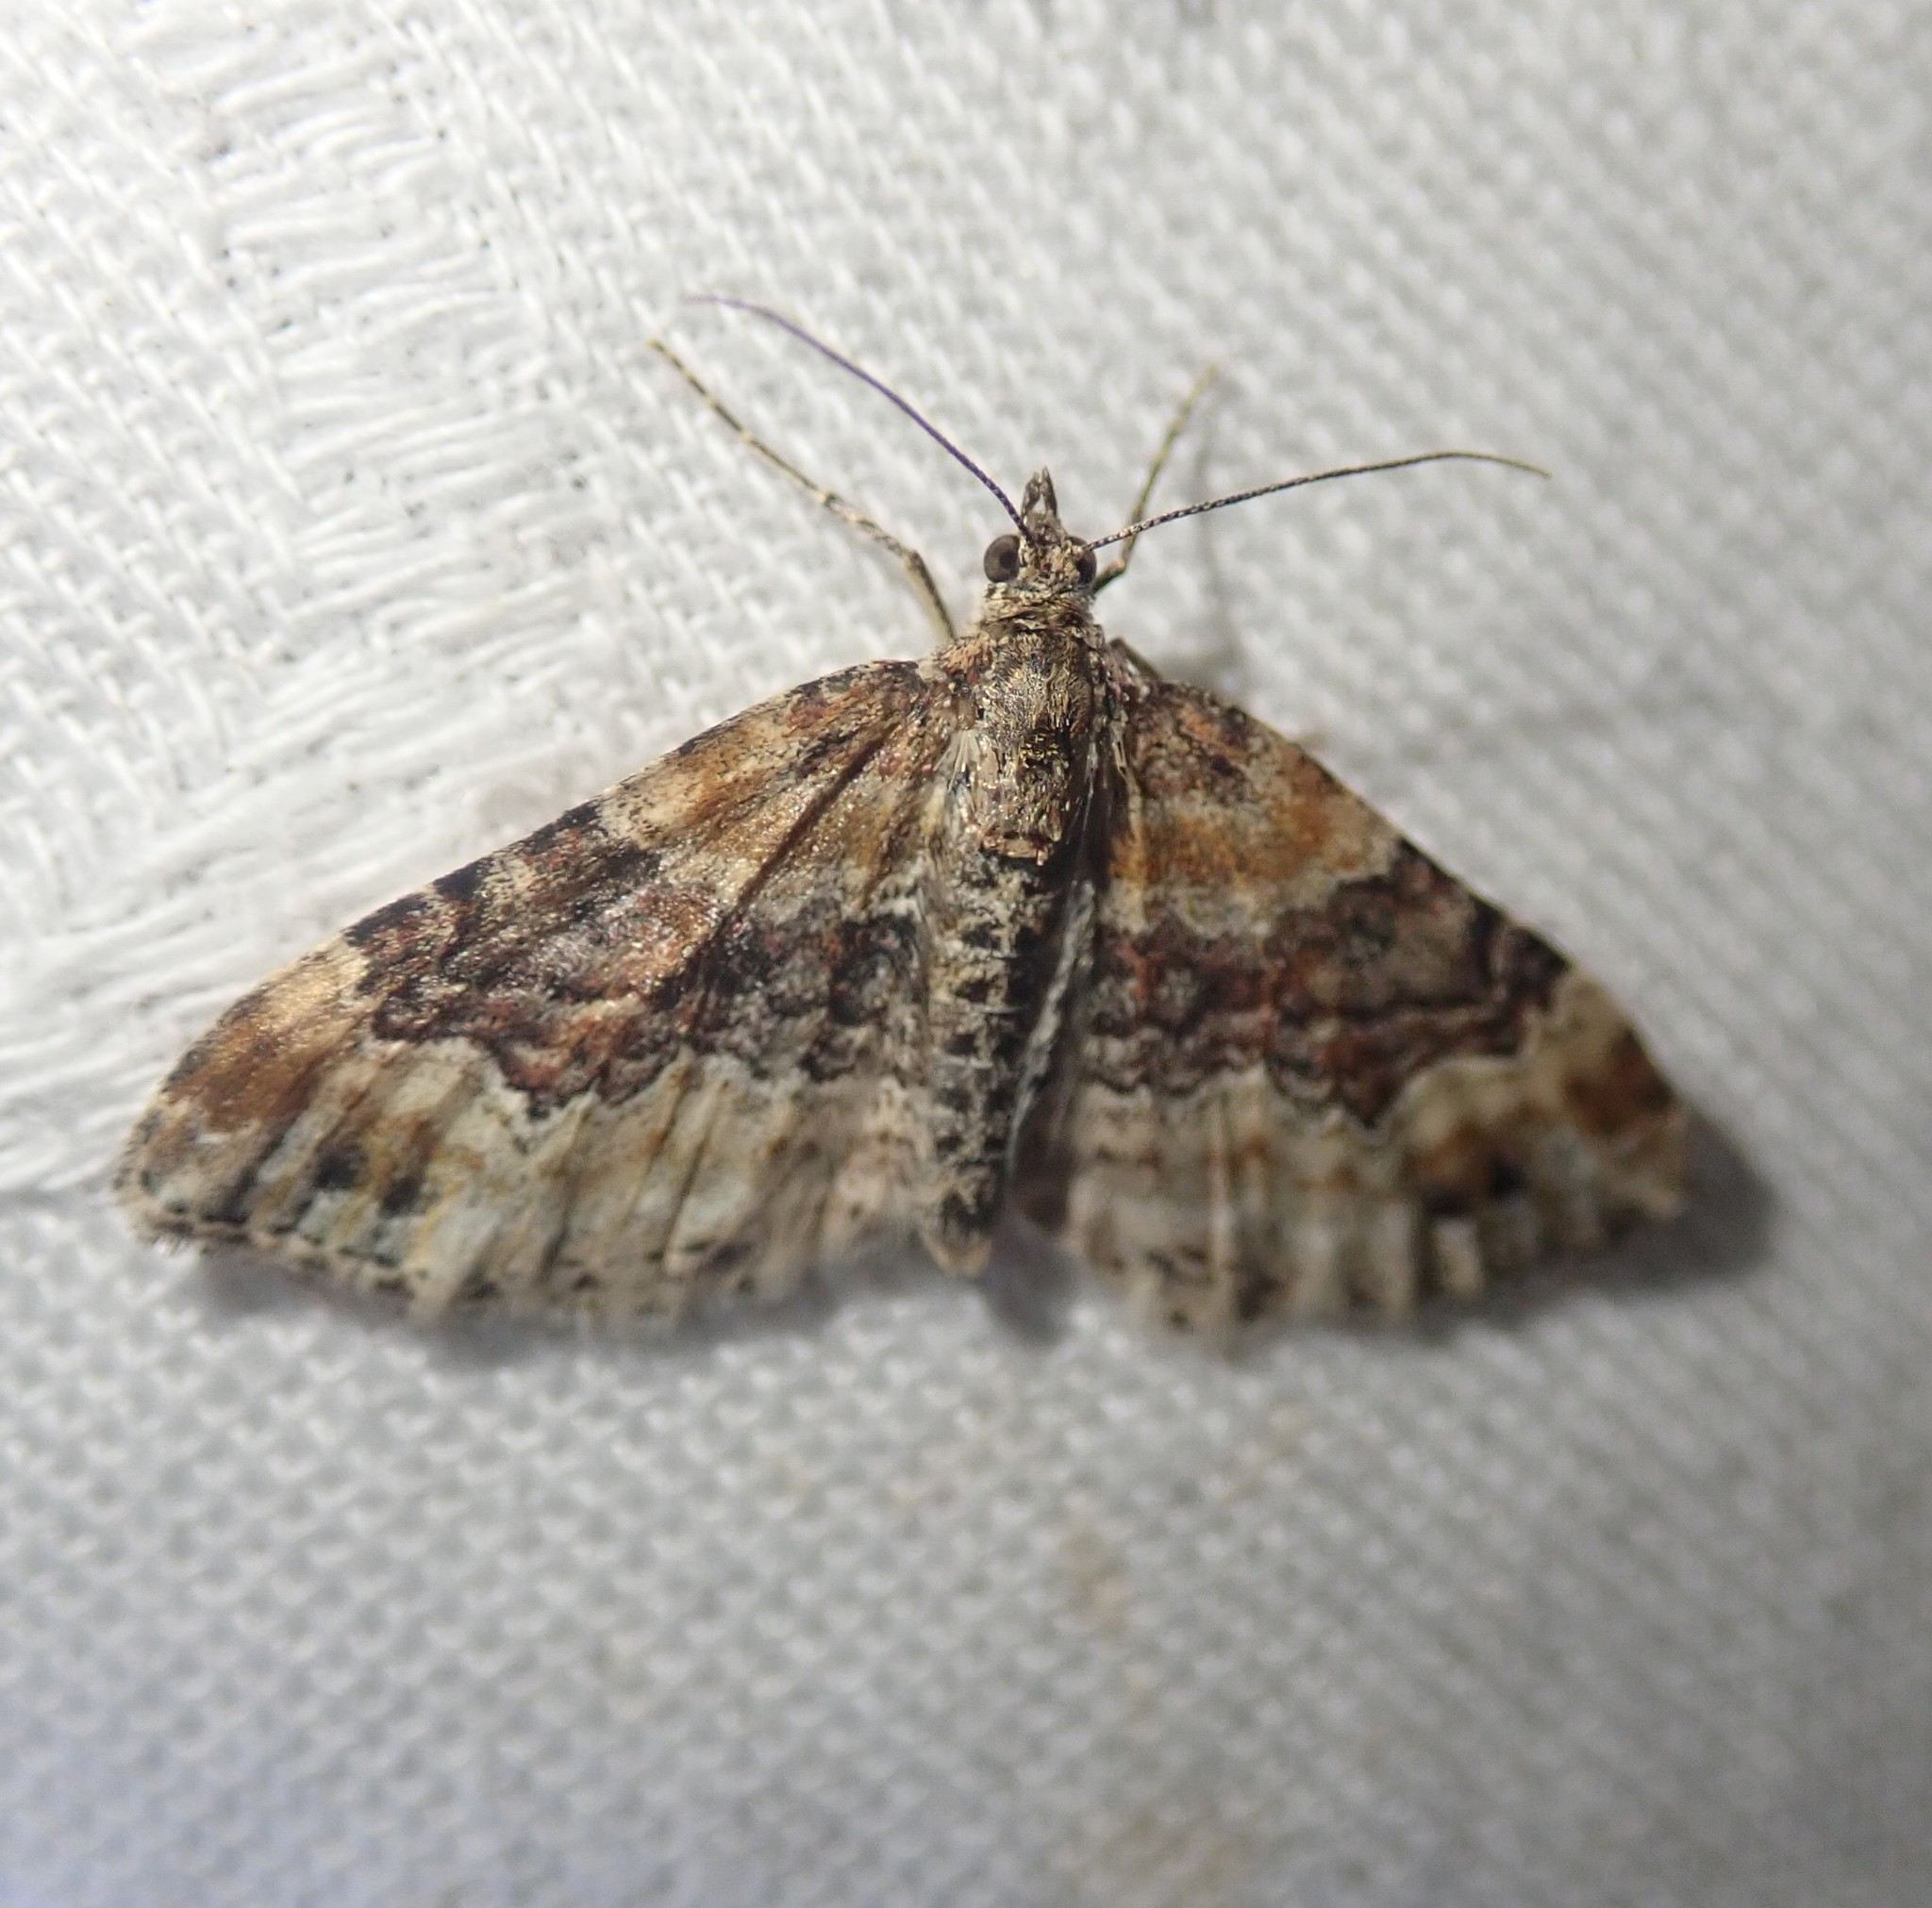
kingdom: Animalia
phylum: Arthropoda
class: Insecta
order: Lepidoptera
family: Geometridae
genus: Xanthorhoe
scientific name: Xanthorhoe spadicearia
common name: Red twin-spot carpet
